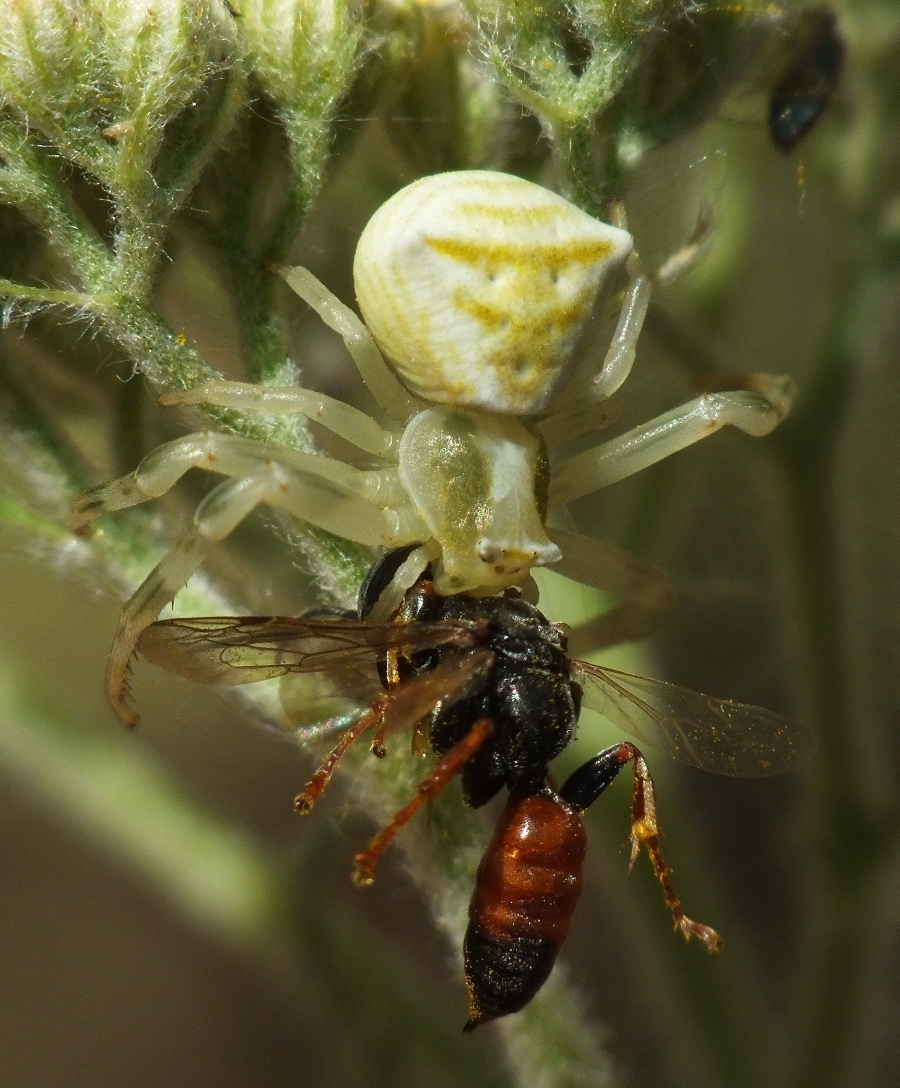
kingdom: Animalia
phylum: Arthropoda
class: Arachnida
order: Araneae
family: Thomisidae
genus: Thomisus
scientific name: Thomisus onustus
